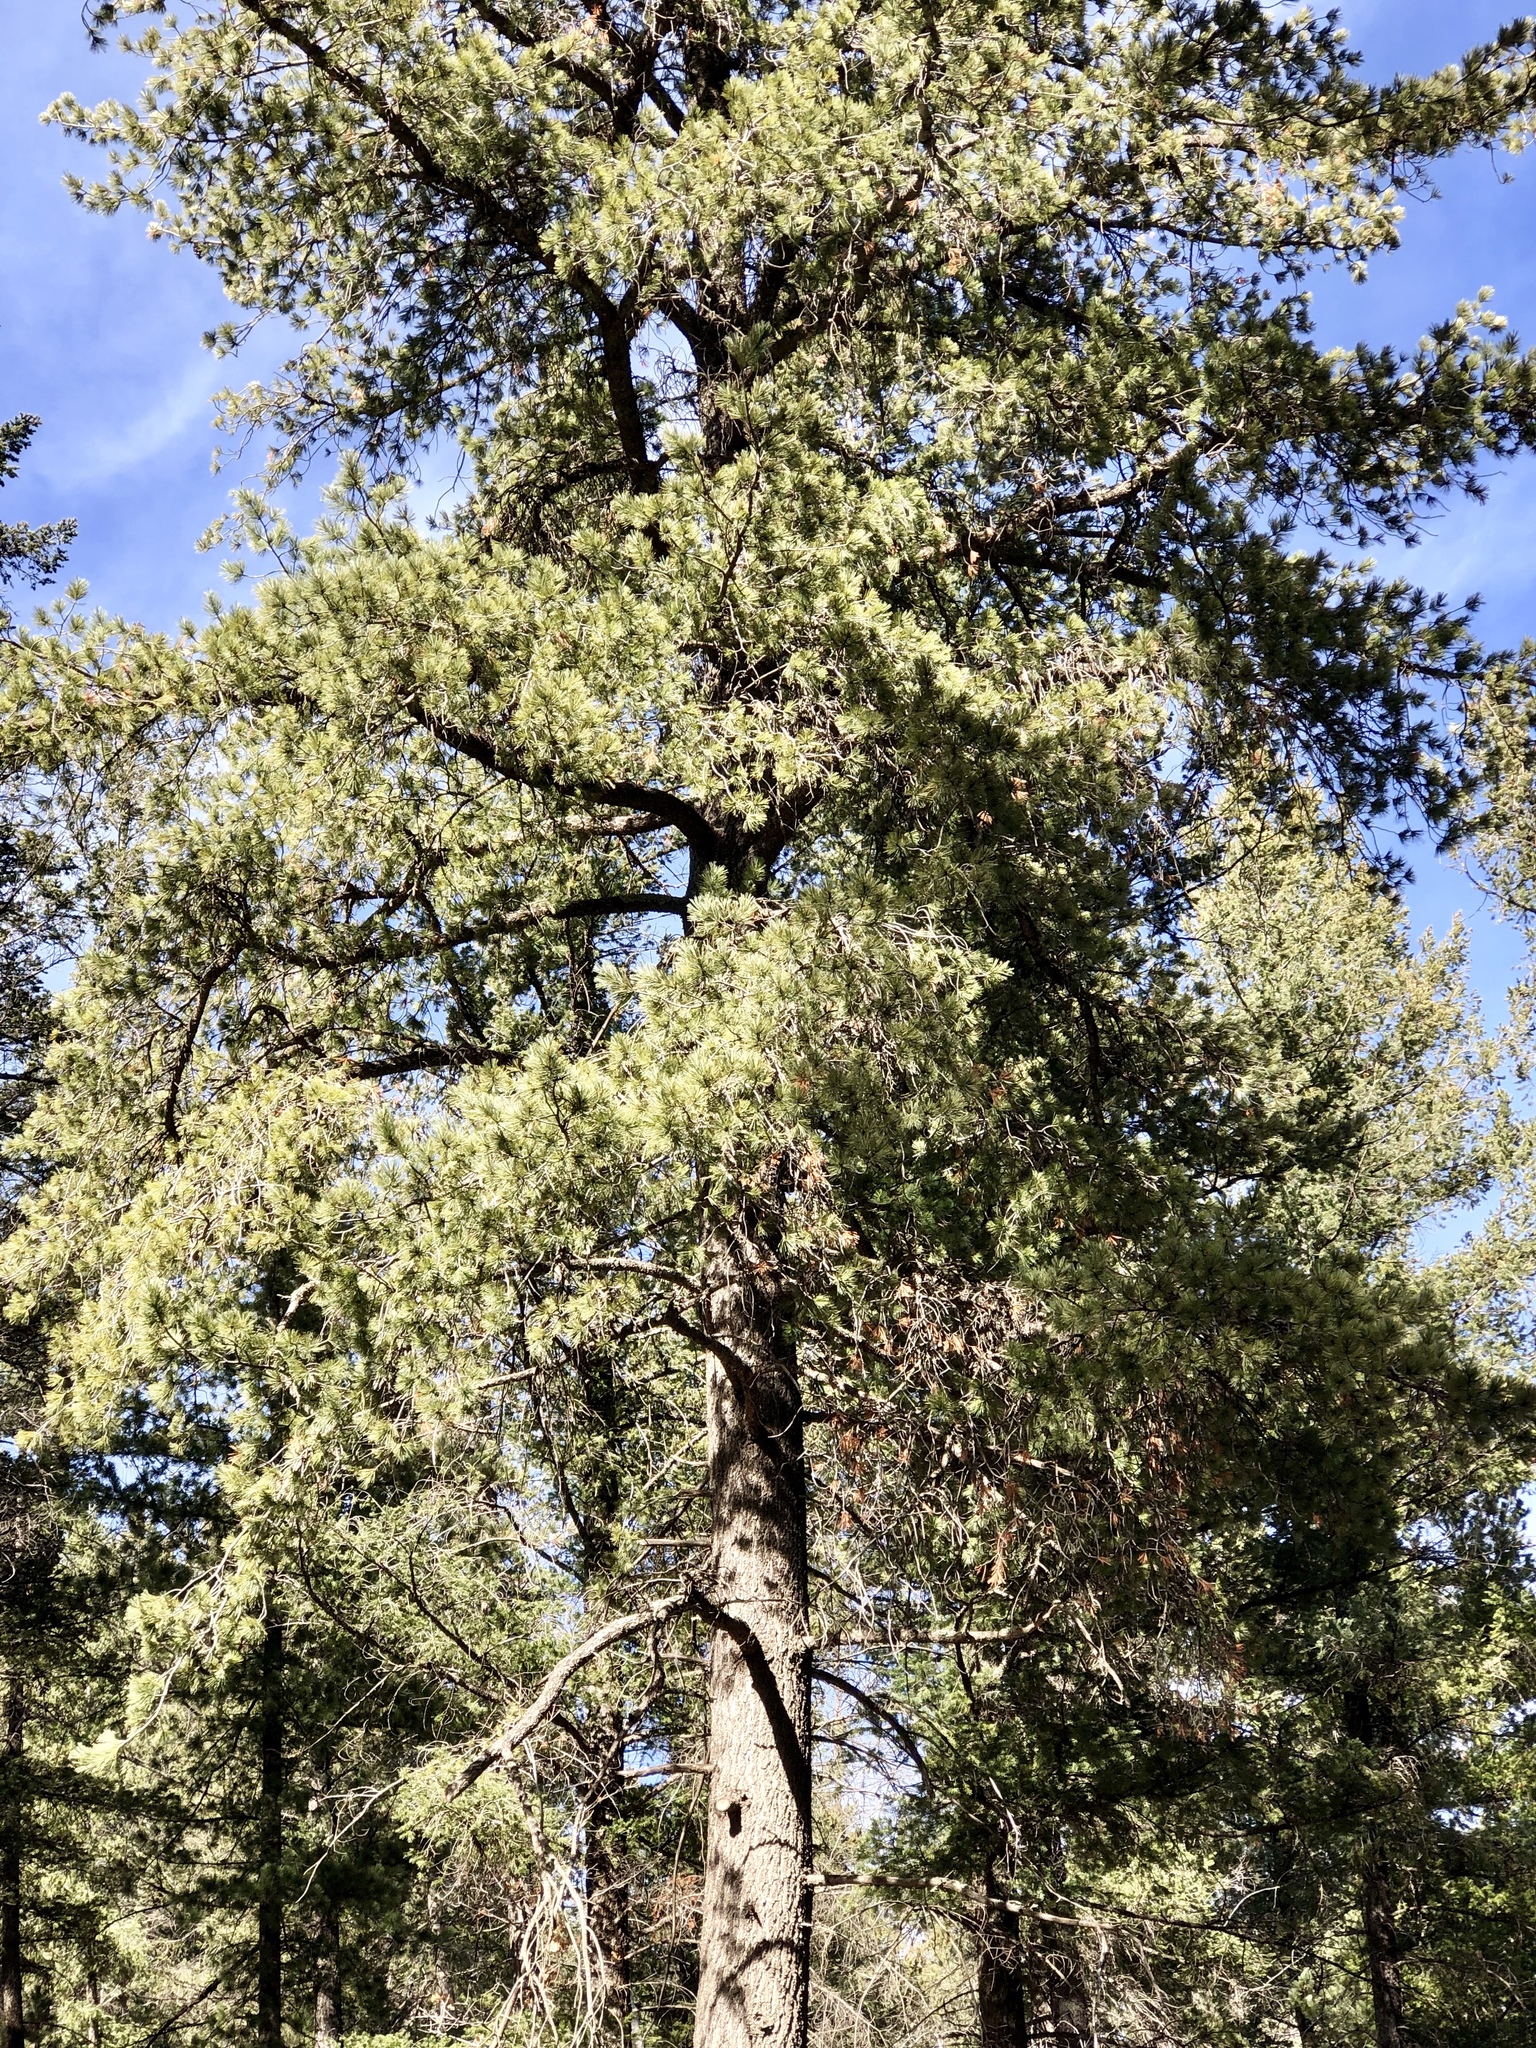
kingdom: Plantae
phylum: Tracheophyta
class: Pinopsida
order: Pinales
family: Pinaceae
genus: Pinus
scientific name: Pinus strobiformis
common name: Southwestern white pine
